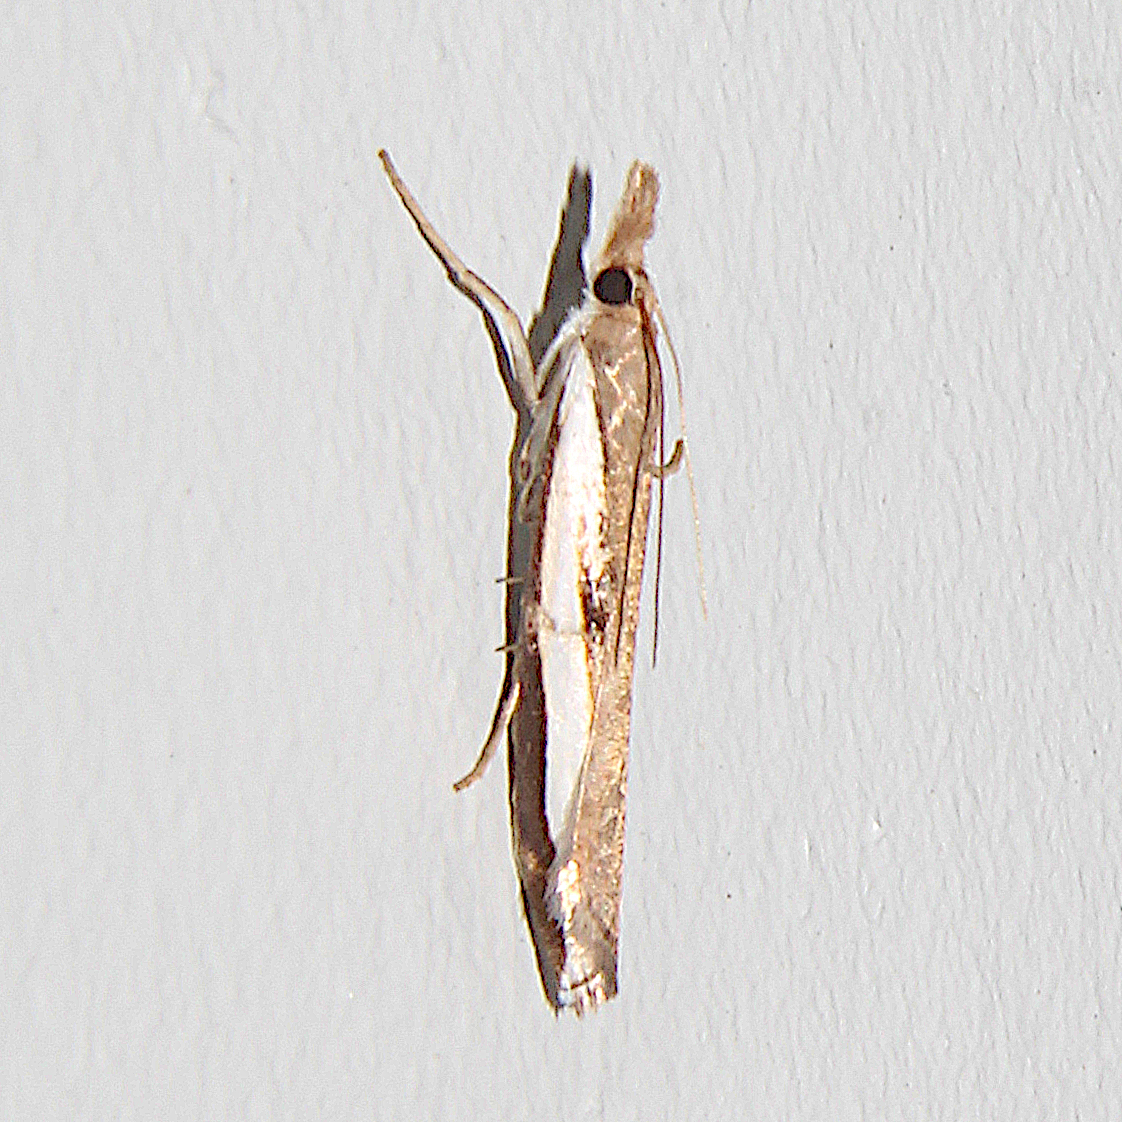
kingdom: Animalia
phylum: Arthropoda
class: Insecta
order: Lepidoptera
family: Crambidae
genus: Orocrambus
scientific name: Orocrambus flexuosellus
